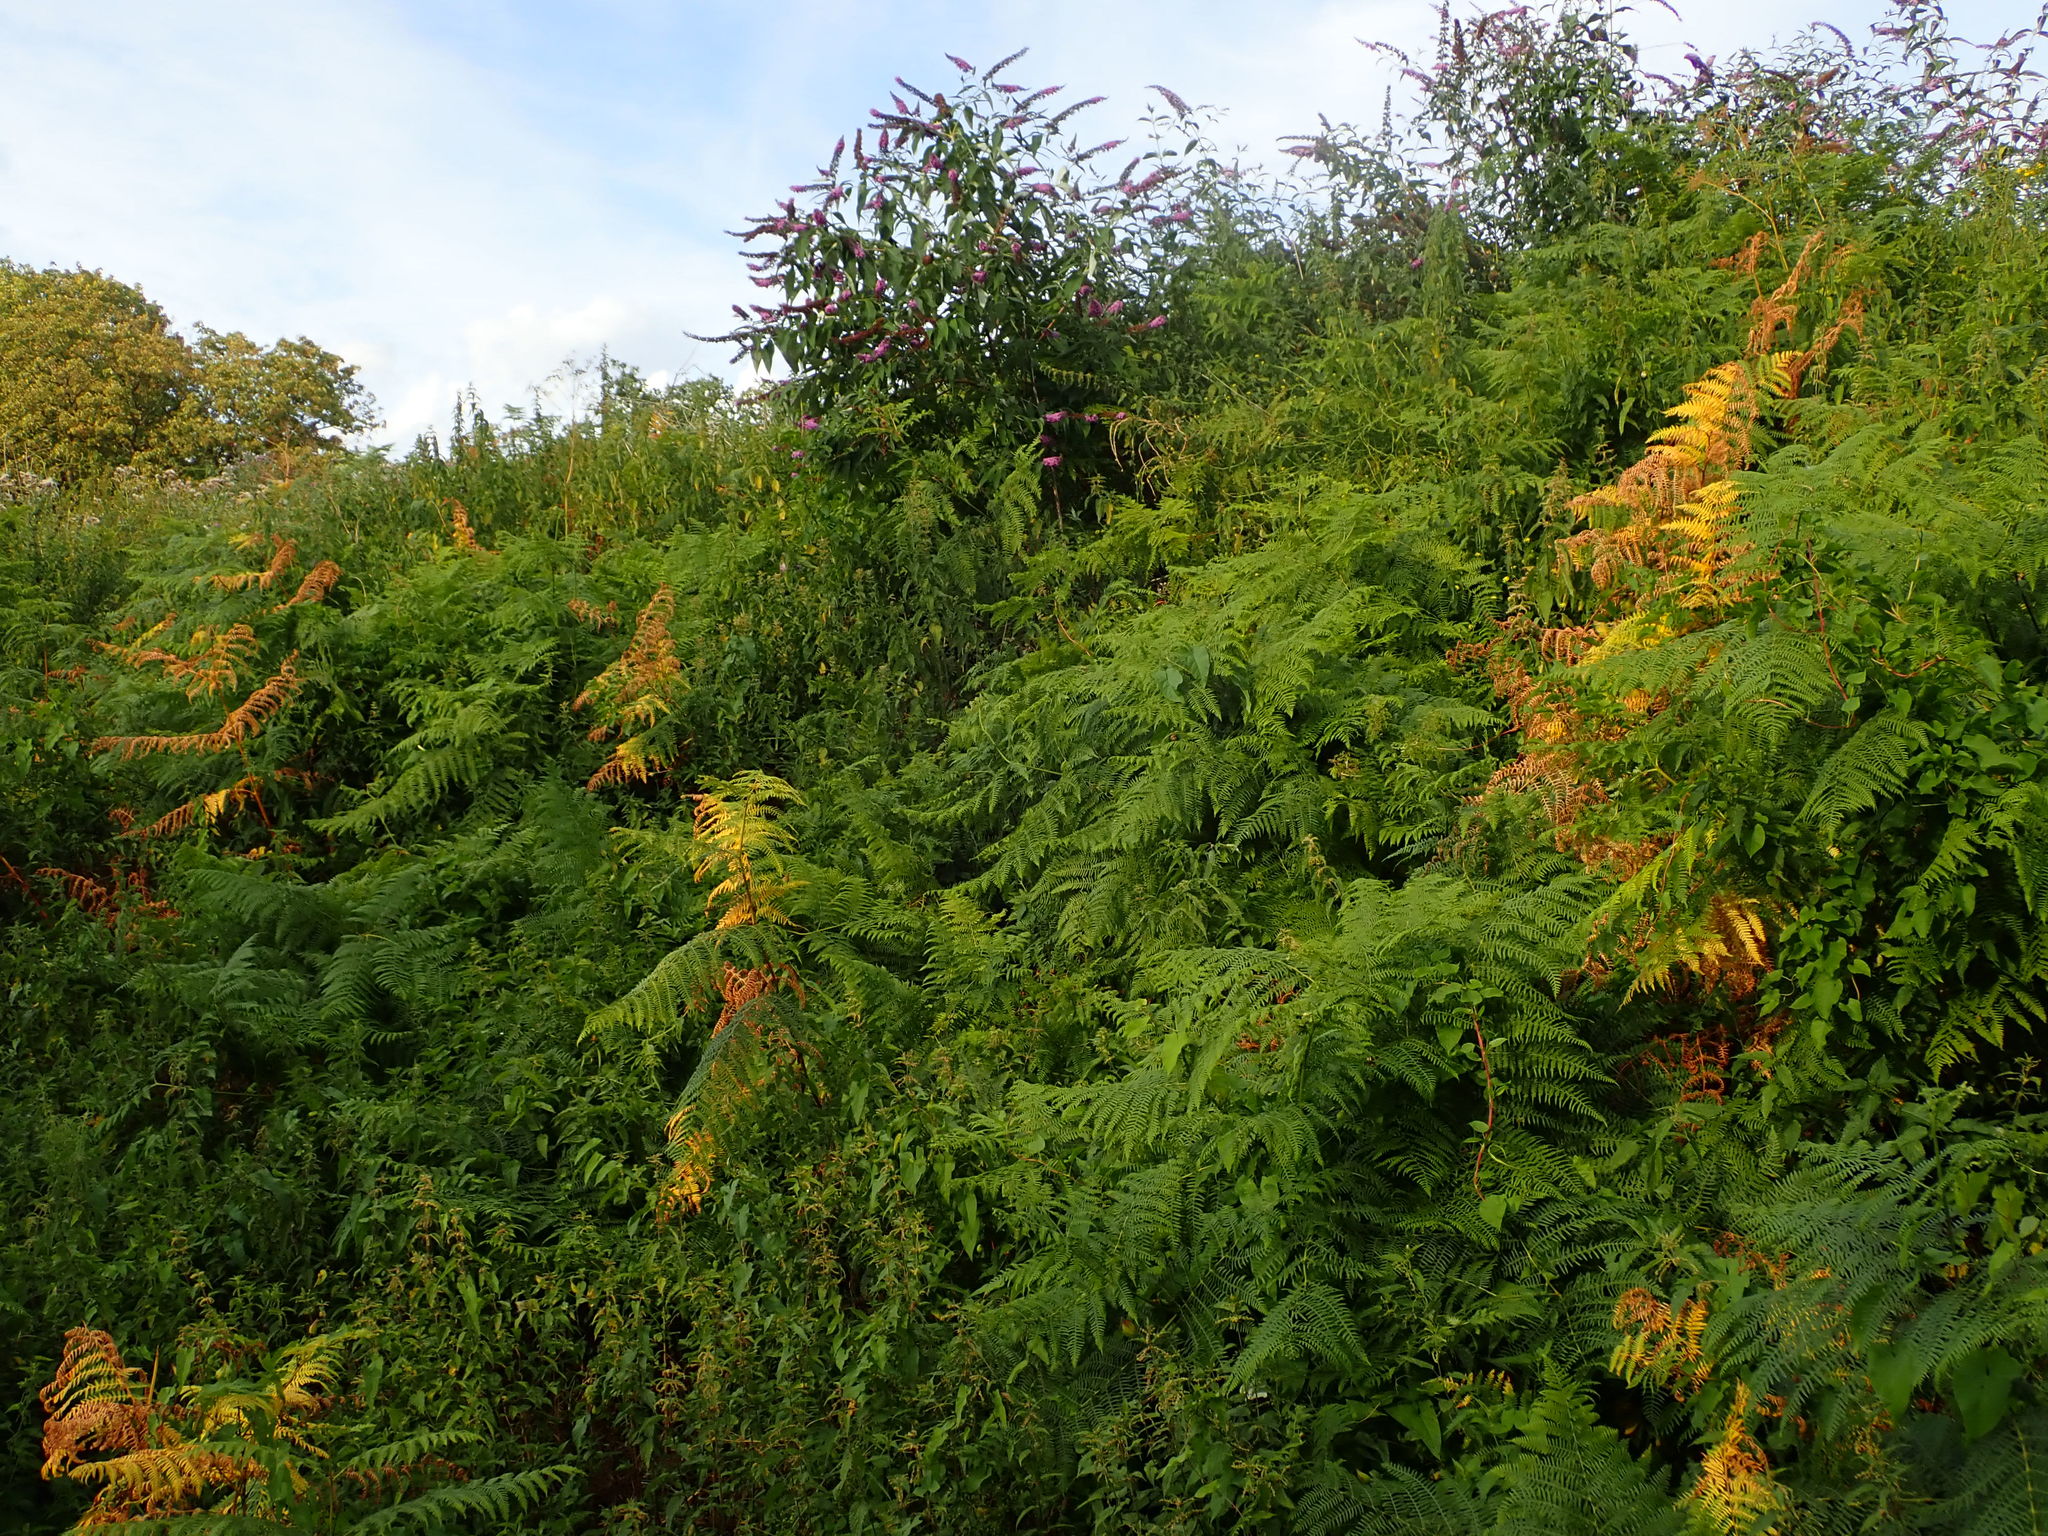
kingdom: Plantae
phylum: Tracheophyta
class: Polypodiopsida
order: Polypodiales
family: Dennstaedtiaceae
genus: Pteridium
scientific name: Pteridium aquilinum
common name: Bracken
